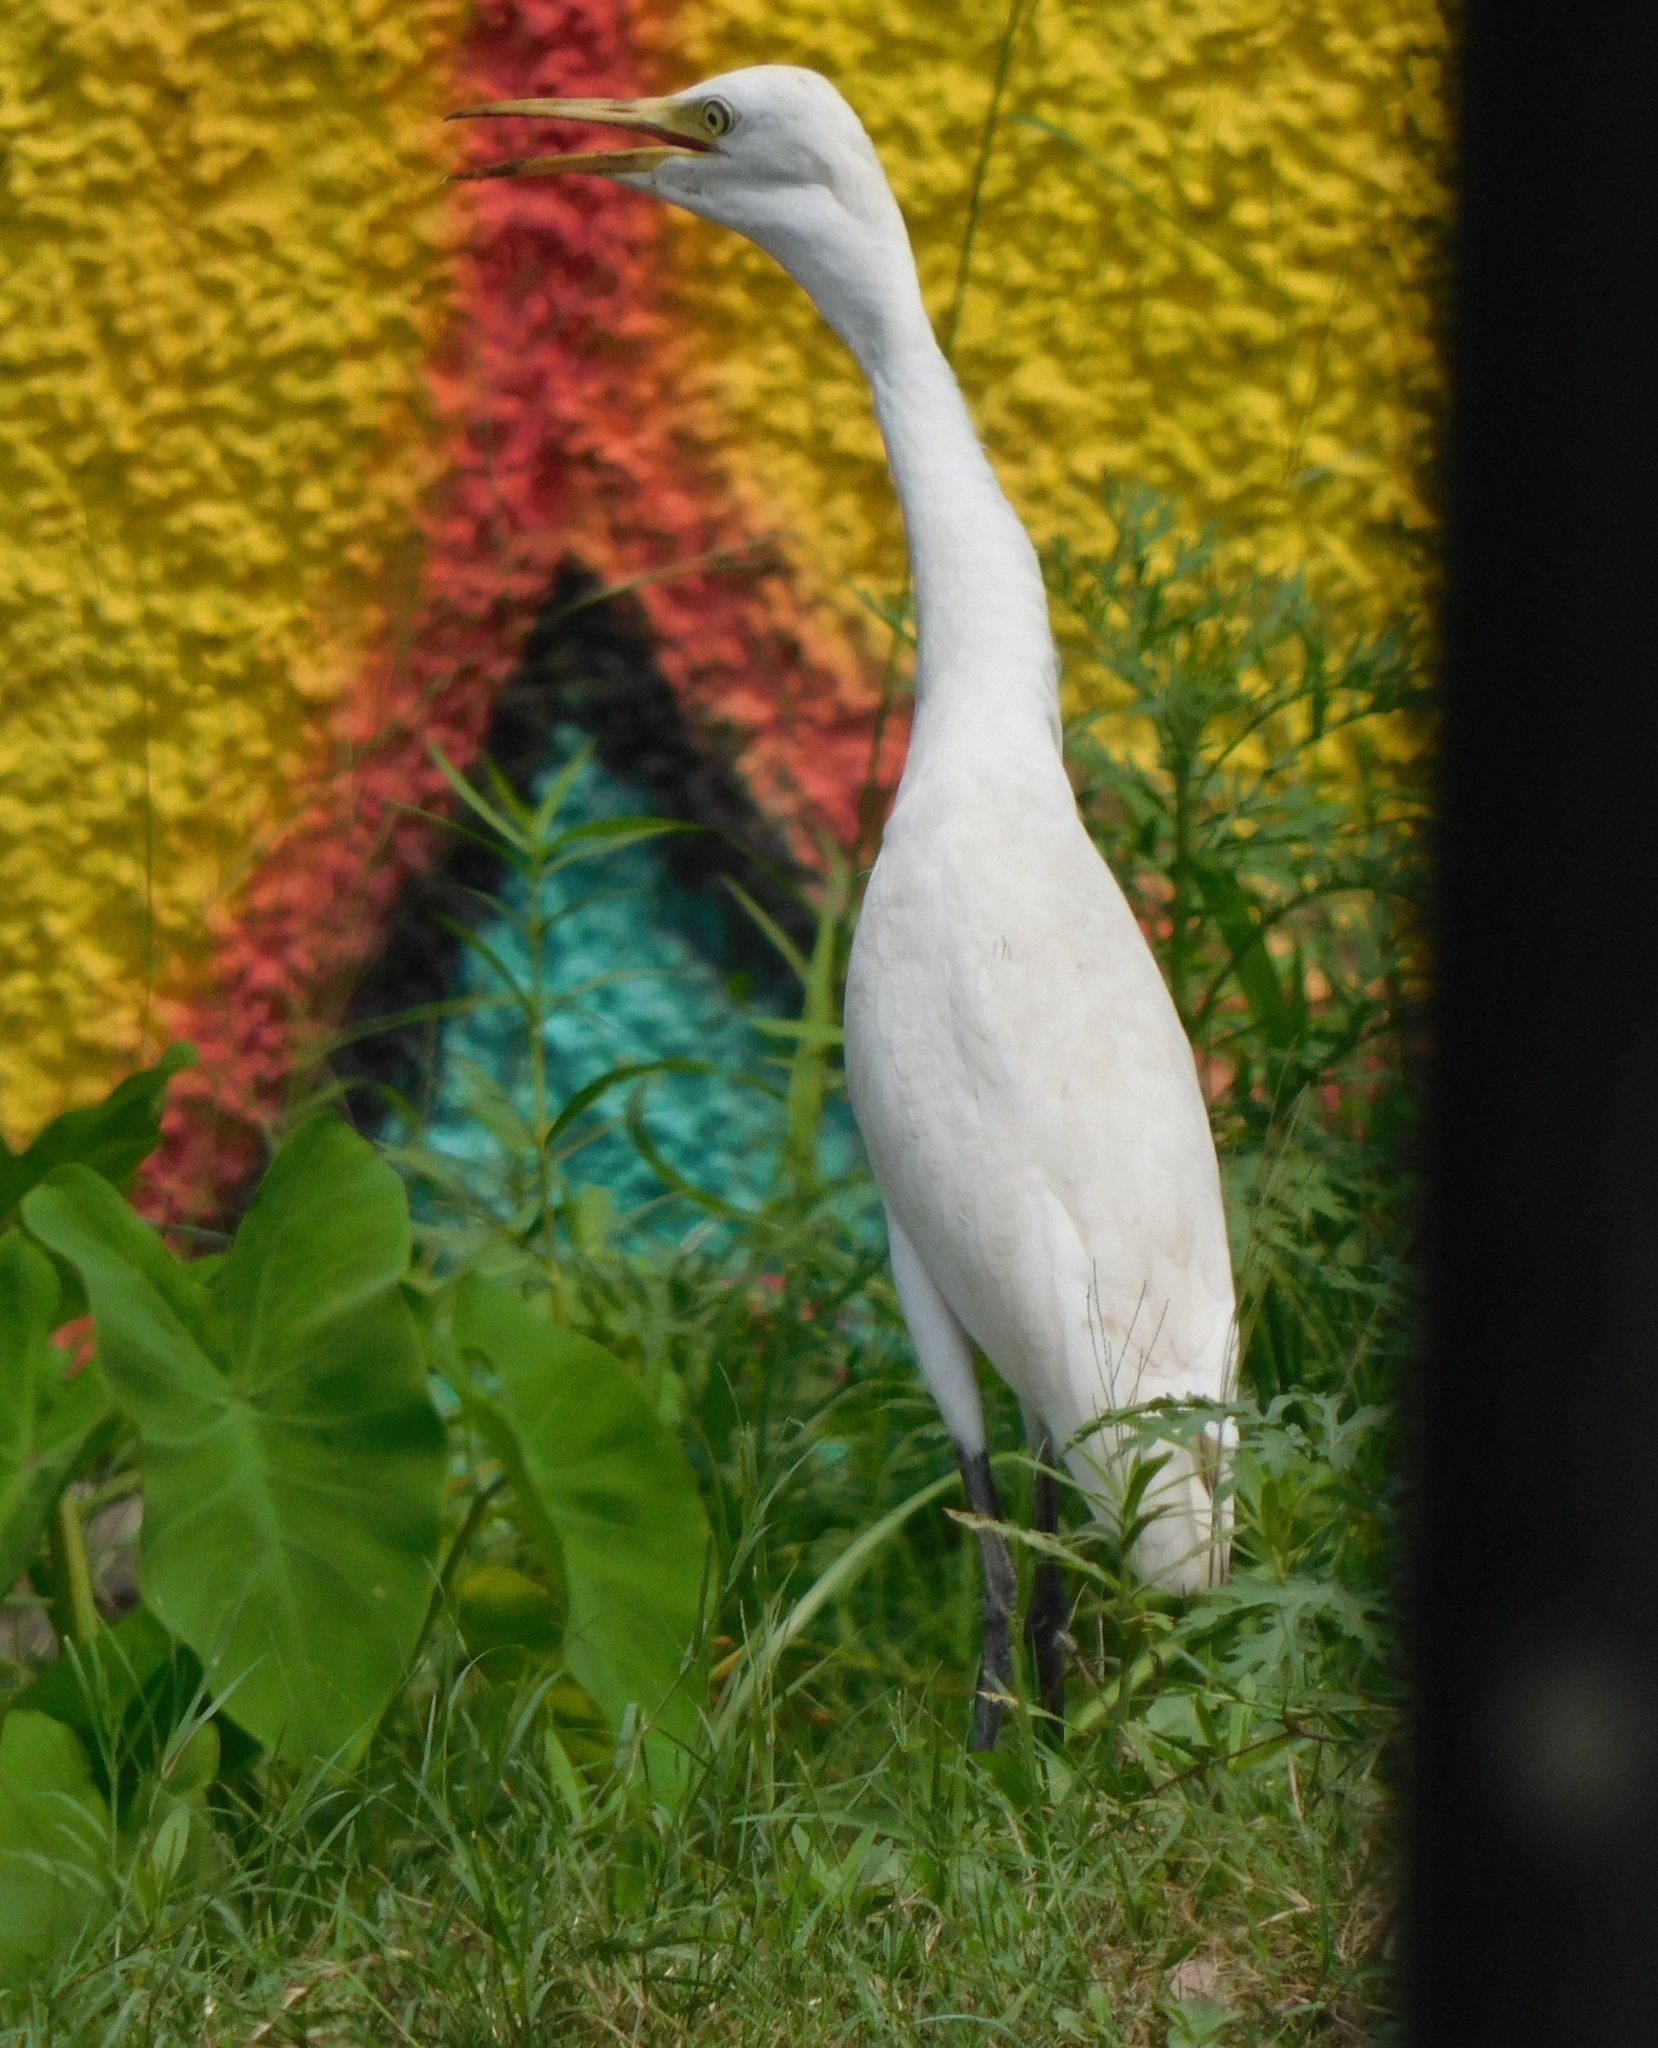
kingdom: Animalia
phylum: Chordata
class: Aves
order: Pelecaniformes
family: Ardeidae
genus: Bubulcus
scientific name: Bubulcus coromandus
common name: Eastern cattle egret
